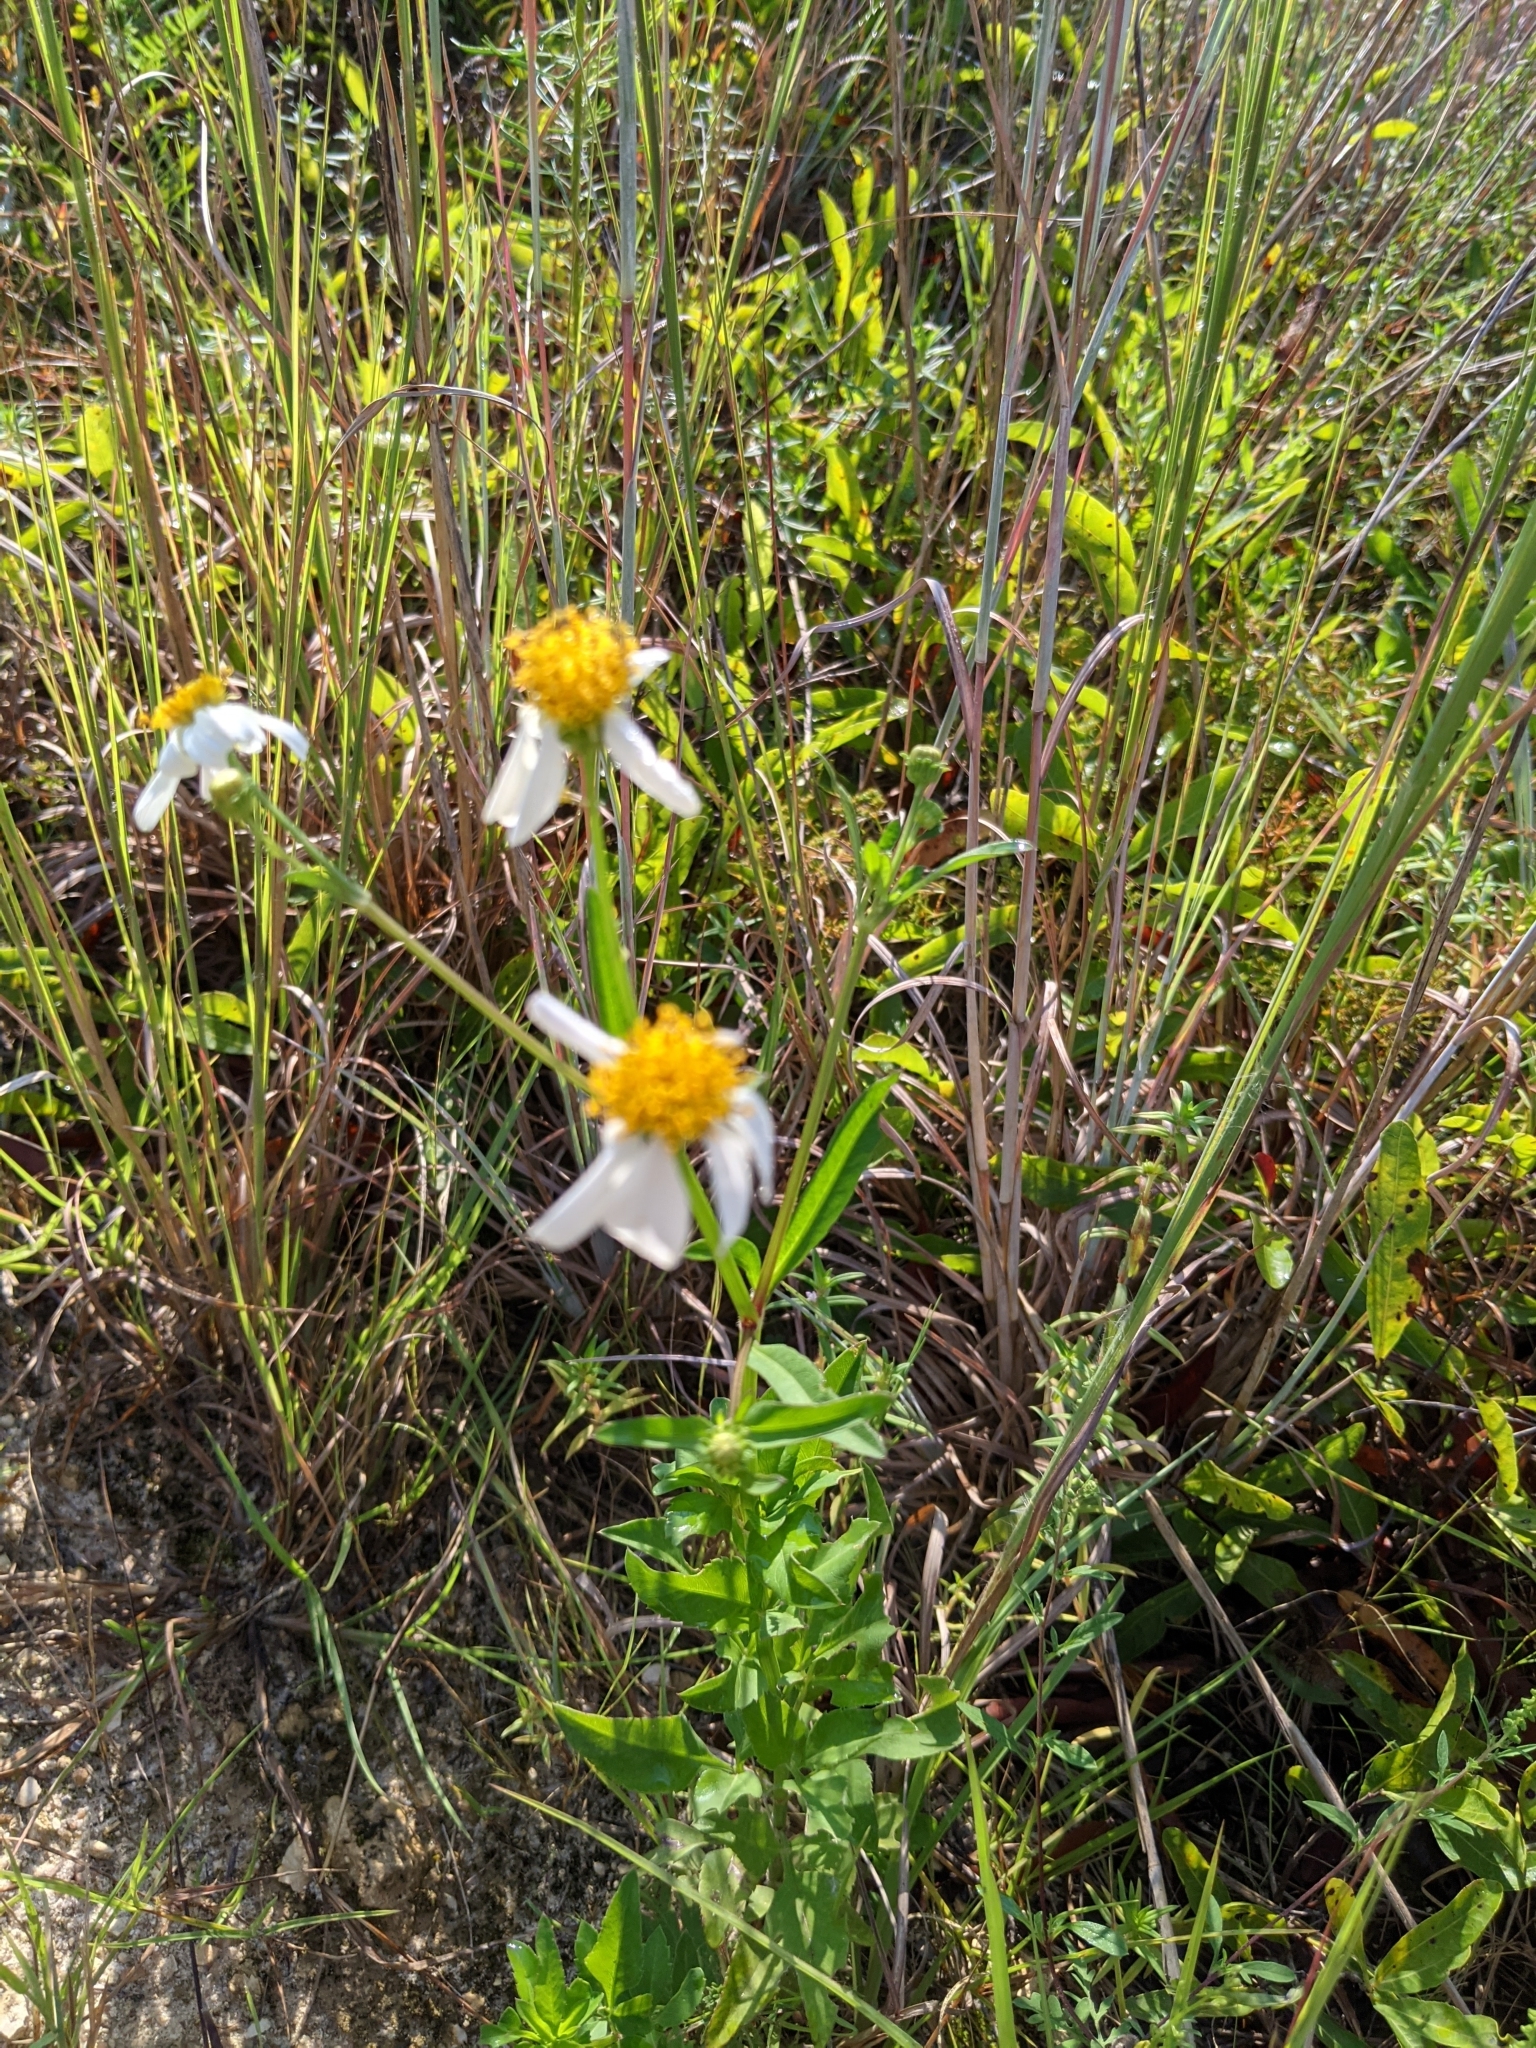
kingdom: Plantae
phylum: Tracheophyta
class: Magnoliopsida
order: Asterales
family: Asteraceae
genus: Bidens
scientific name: Bidens alba
